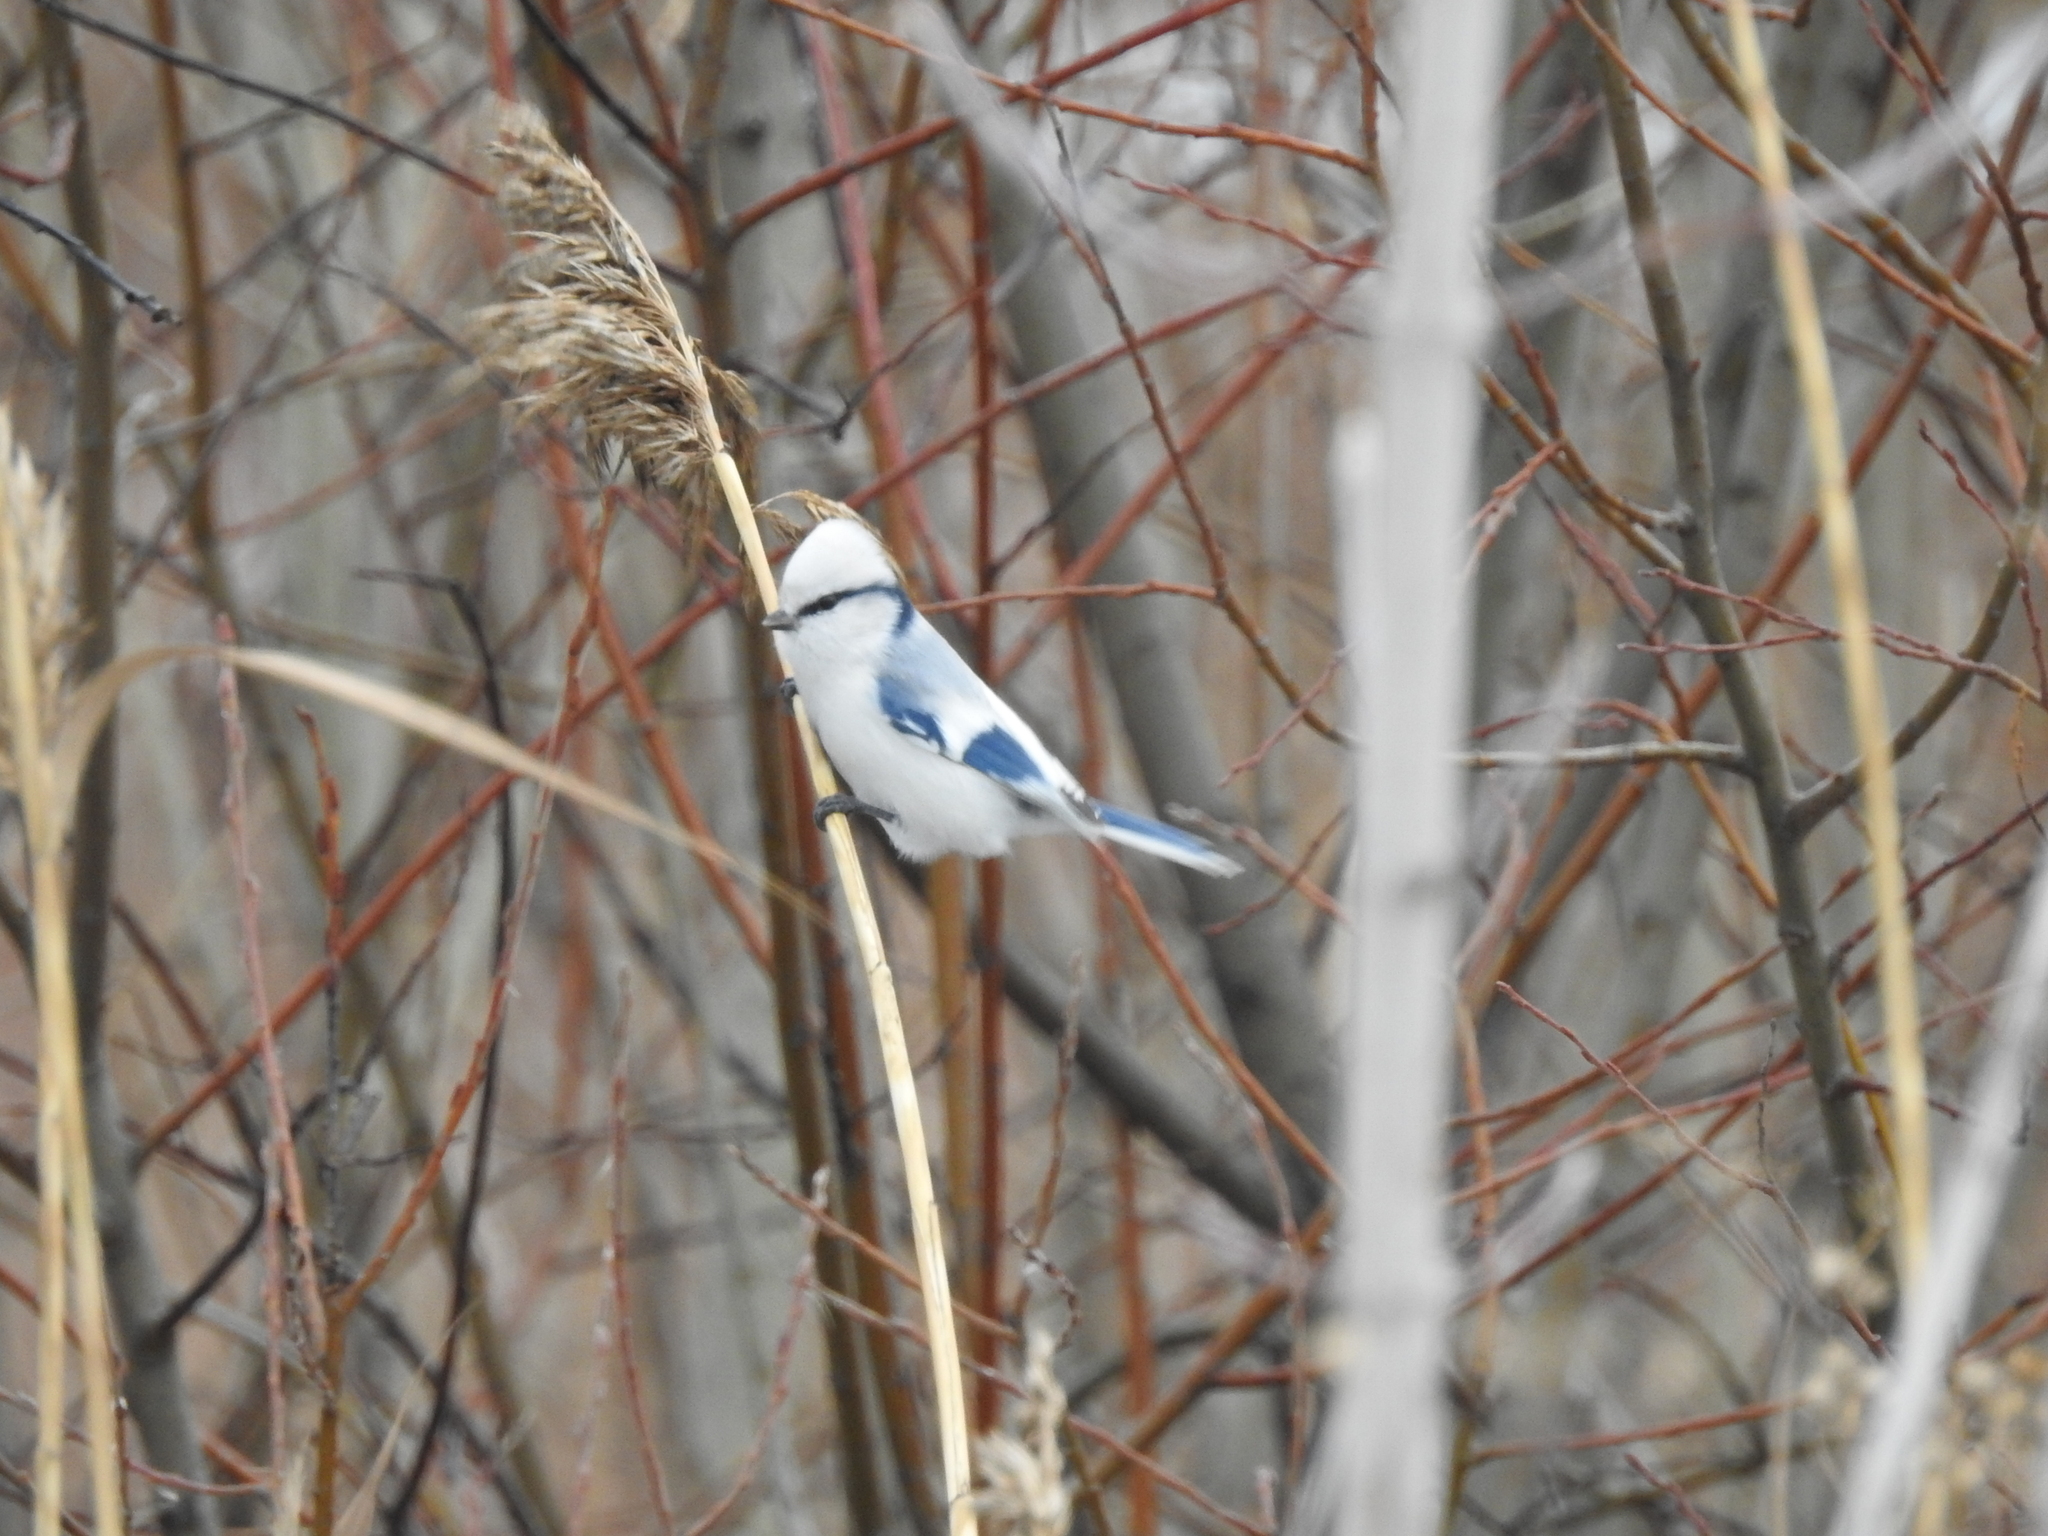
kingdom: Animalia
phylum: Chordata
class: Aves
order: Passeriformes
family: Paridae
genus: Cyanistes
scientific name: Cyanistes cyanus
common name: Azure tit
